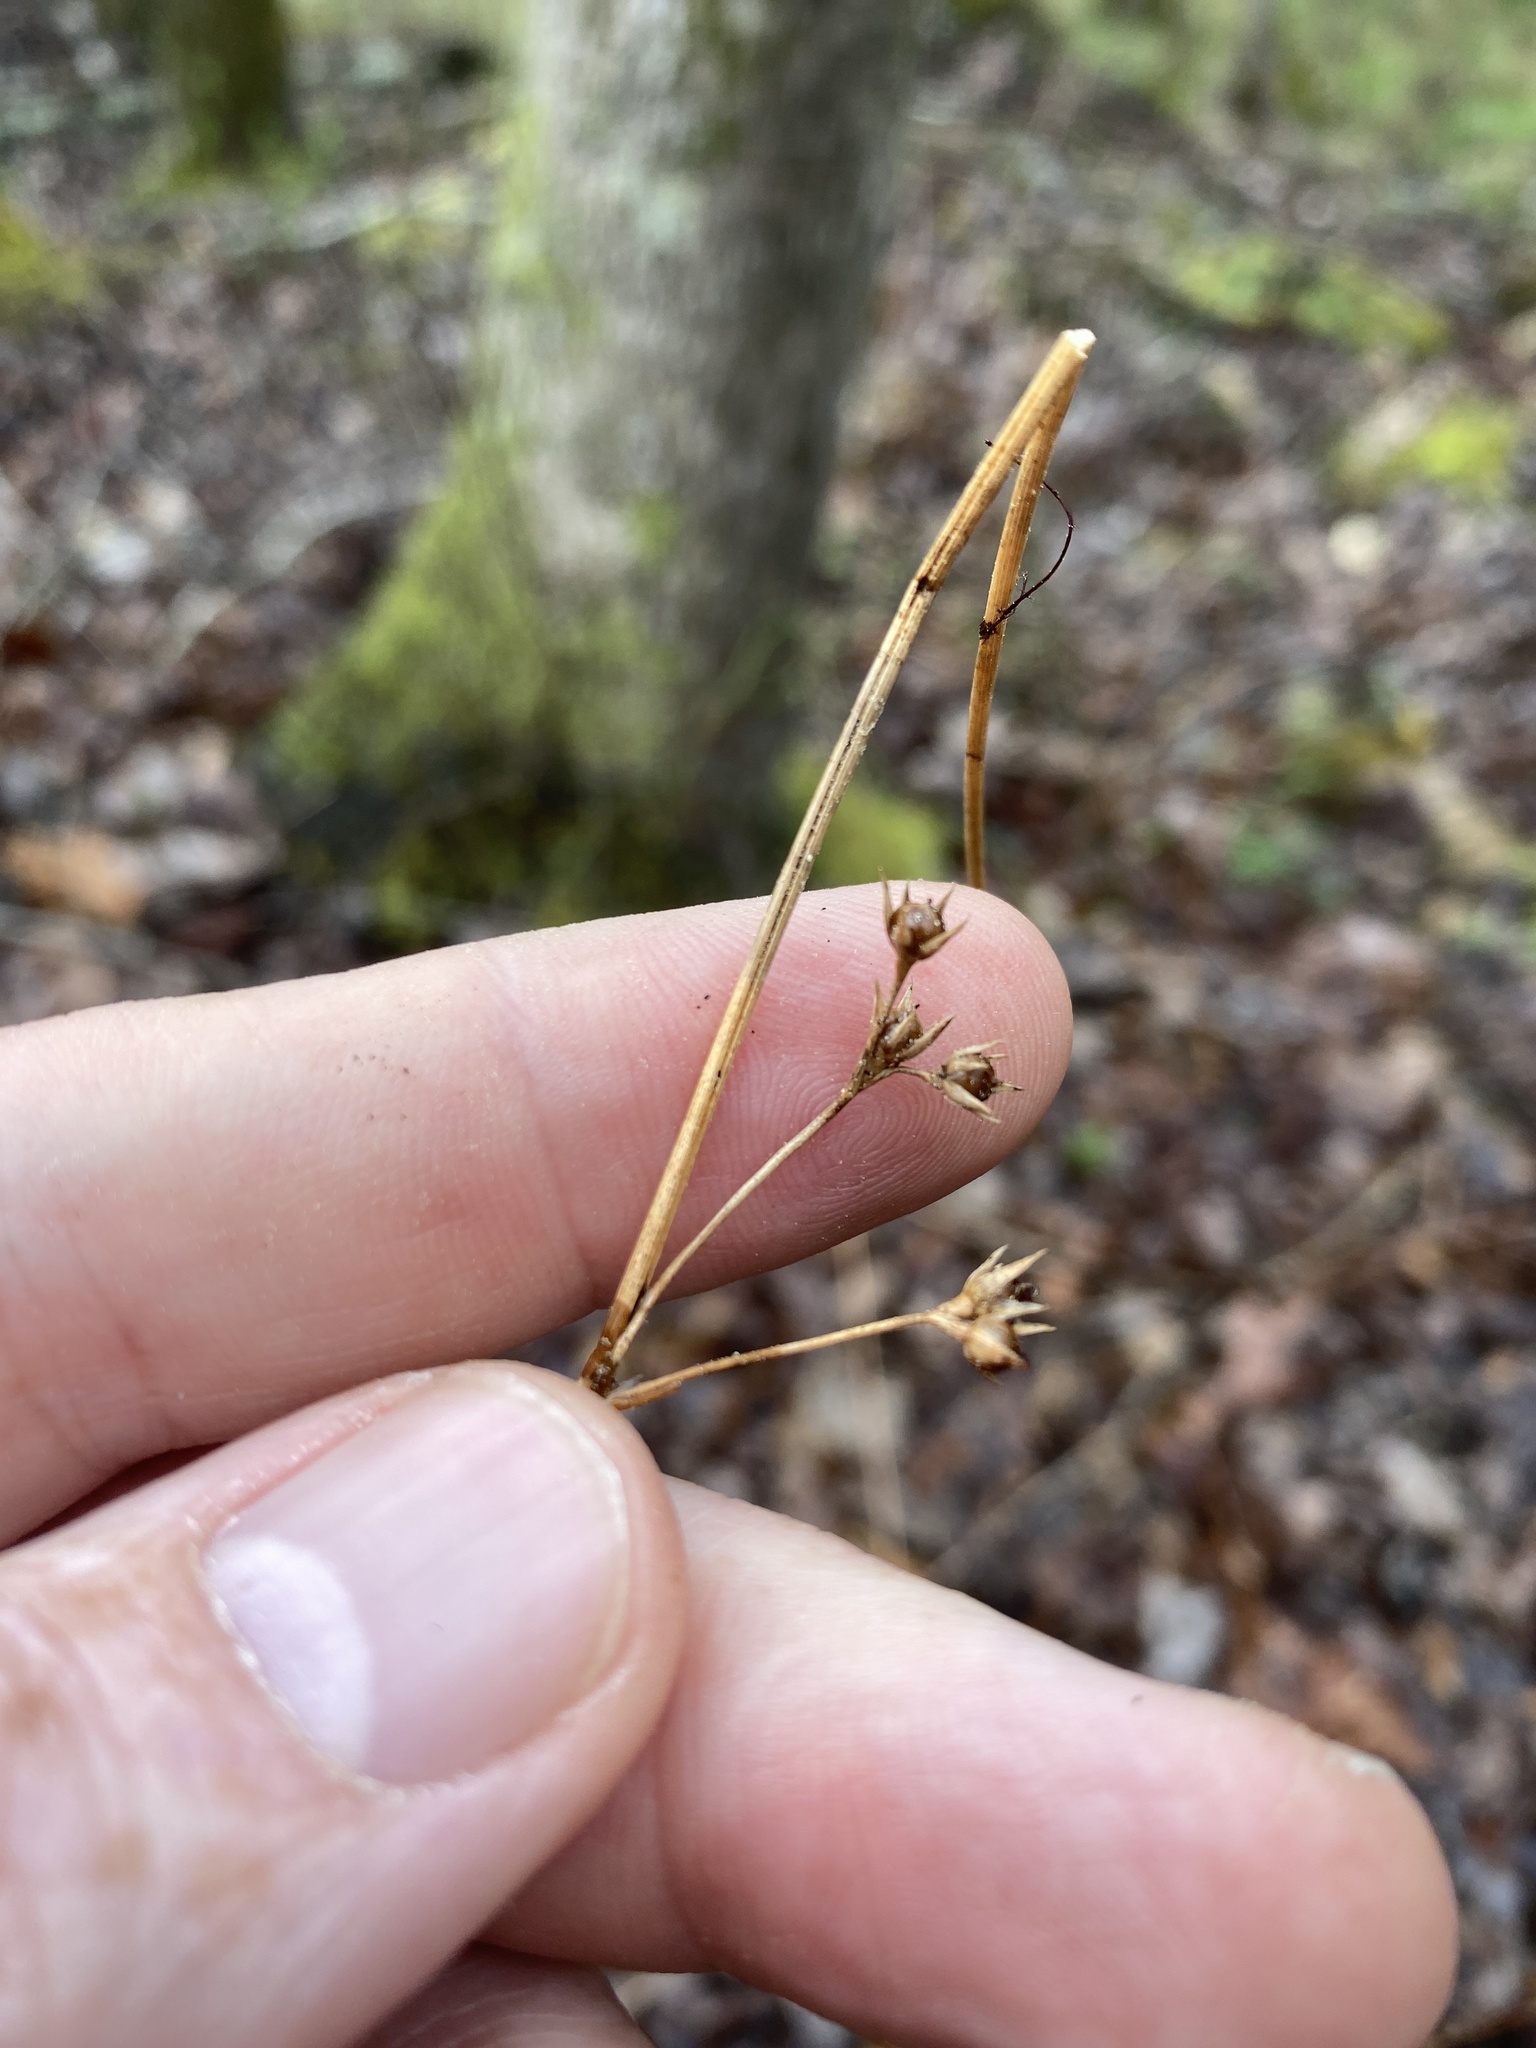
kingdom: Plantae
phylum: Tracheophyta
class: Liliopsida
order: Poales
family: Juncaceae
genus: Juncus
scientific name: Juncus coriaceus
